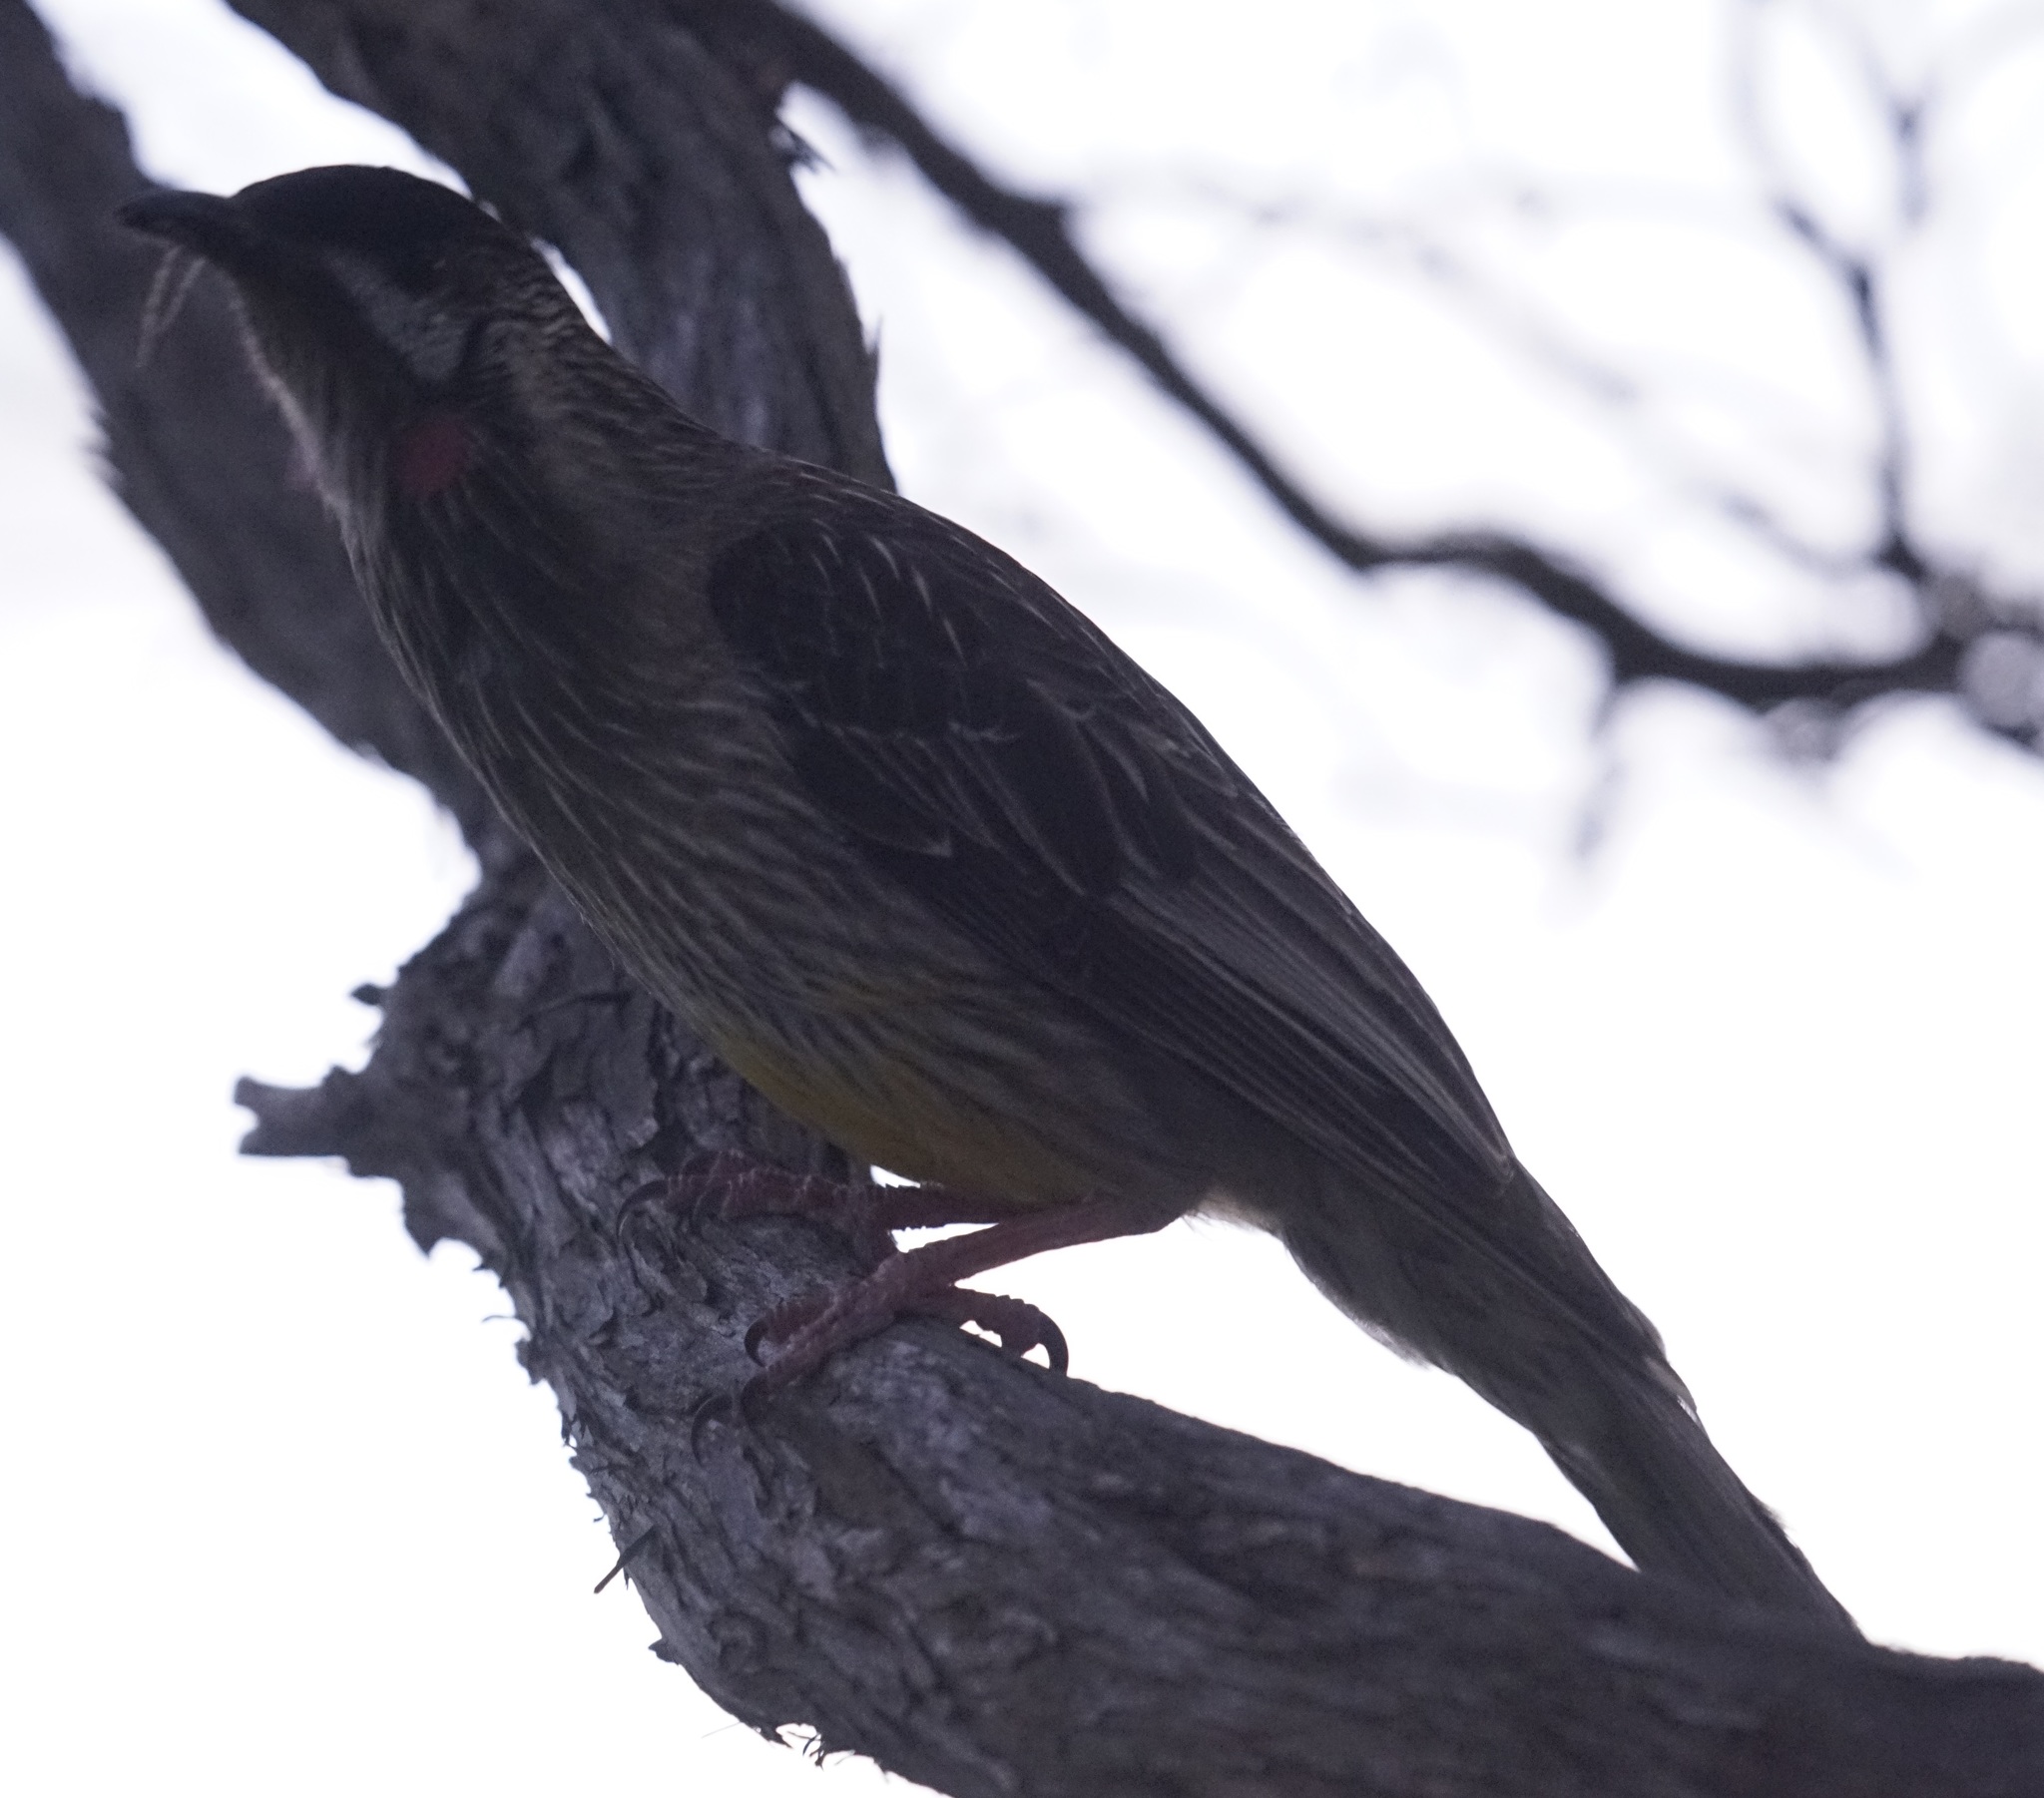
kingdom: Animalia
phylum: Chordata
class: Aves
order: Passeriformes
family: Meliphagidae
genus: Anthochaera
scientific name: Anthochaera carunculata
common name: Red wattlebird
